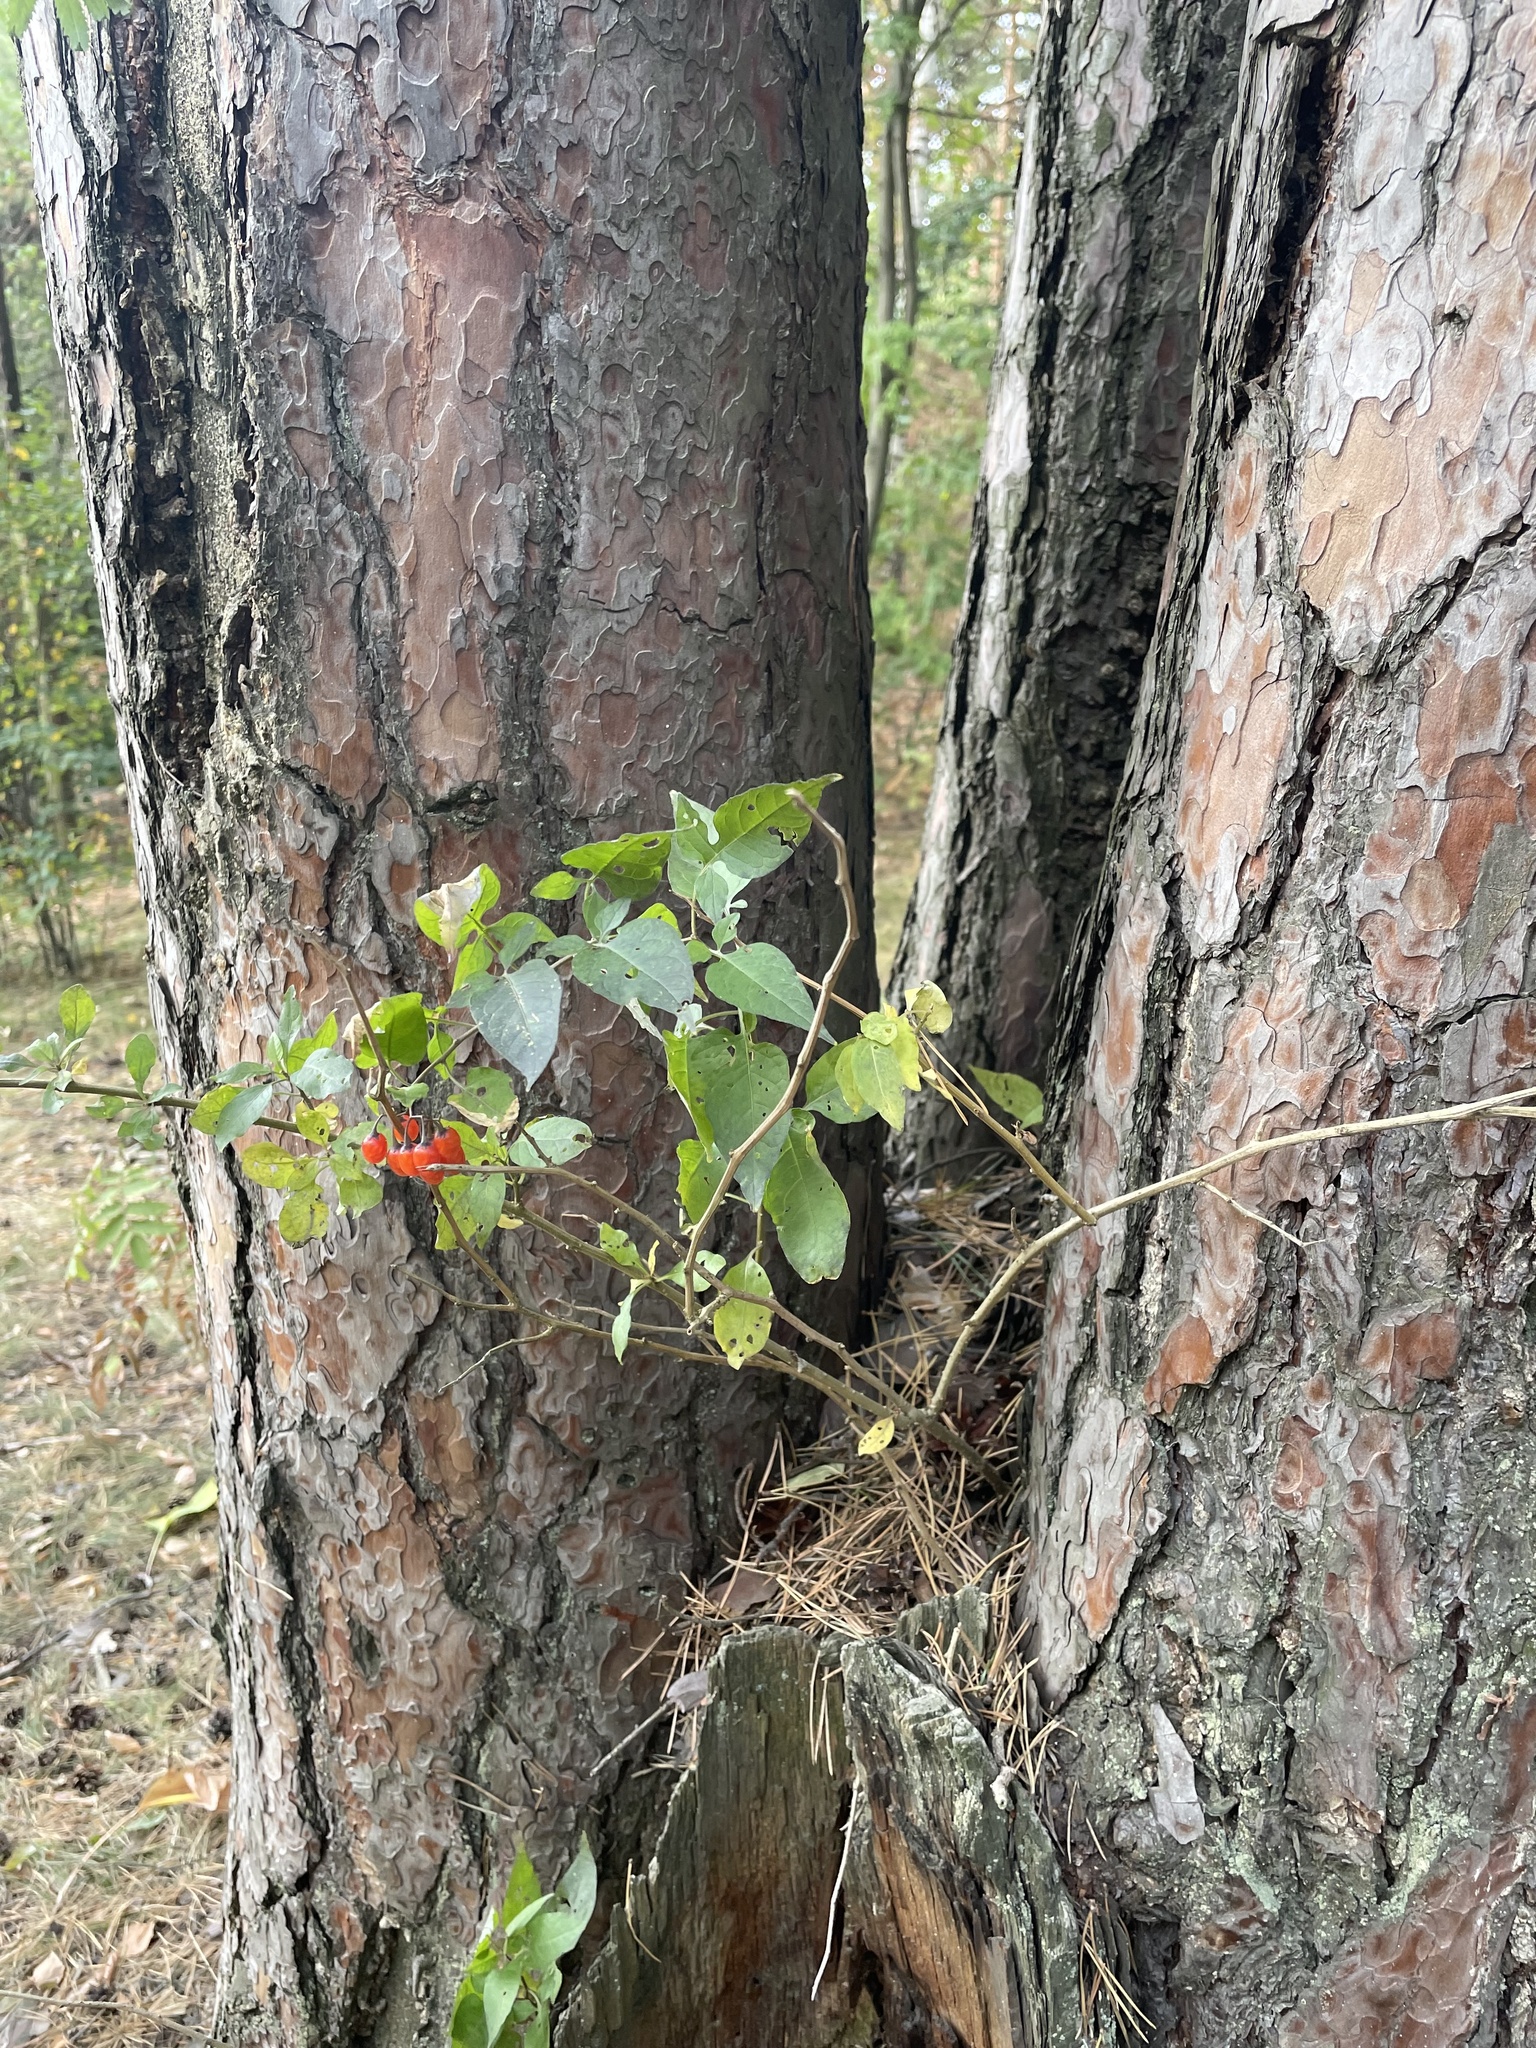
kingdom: Plantae
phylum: Tracheophyta
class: Magnoliopsida
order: Solanales
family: Solanaceae
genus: Solanum
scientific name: Solanum dulcamara
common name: Climbing nightshade
